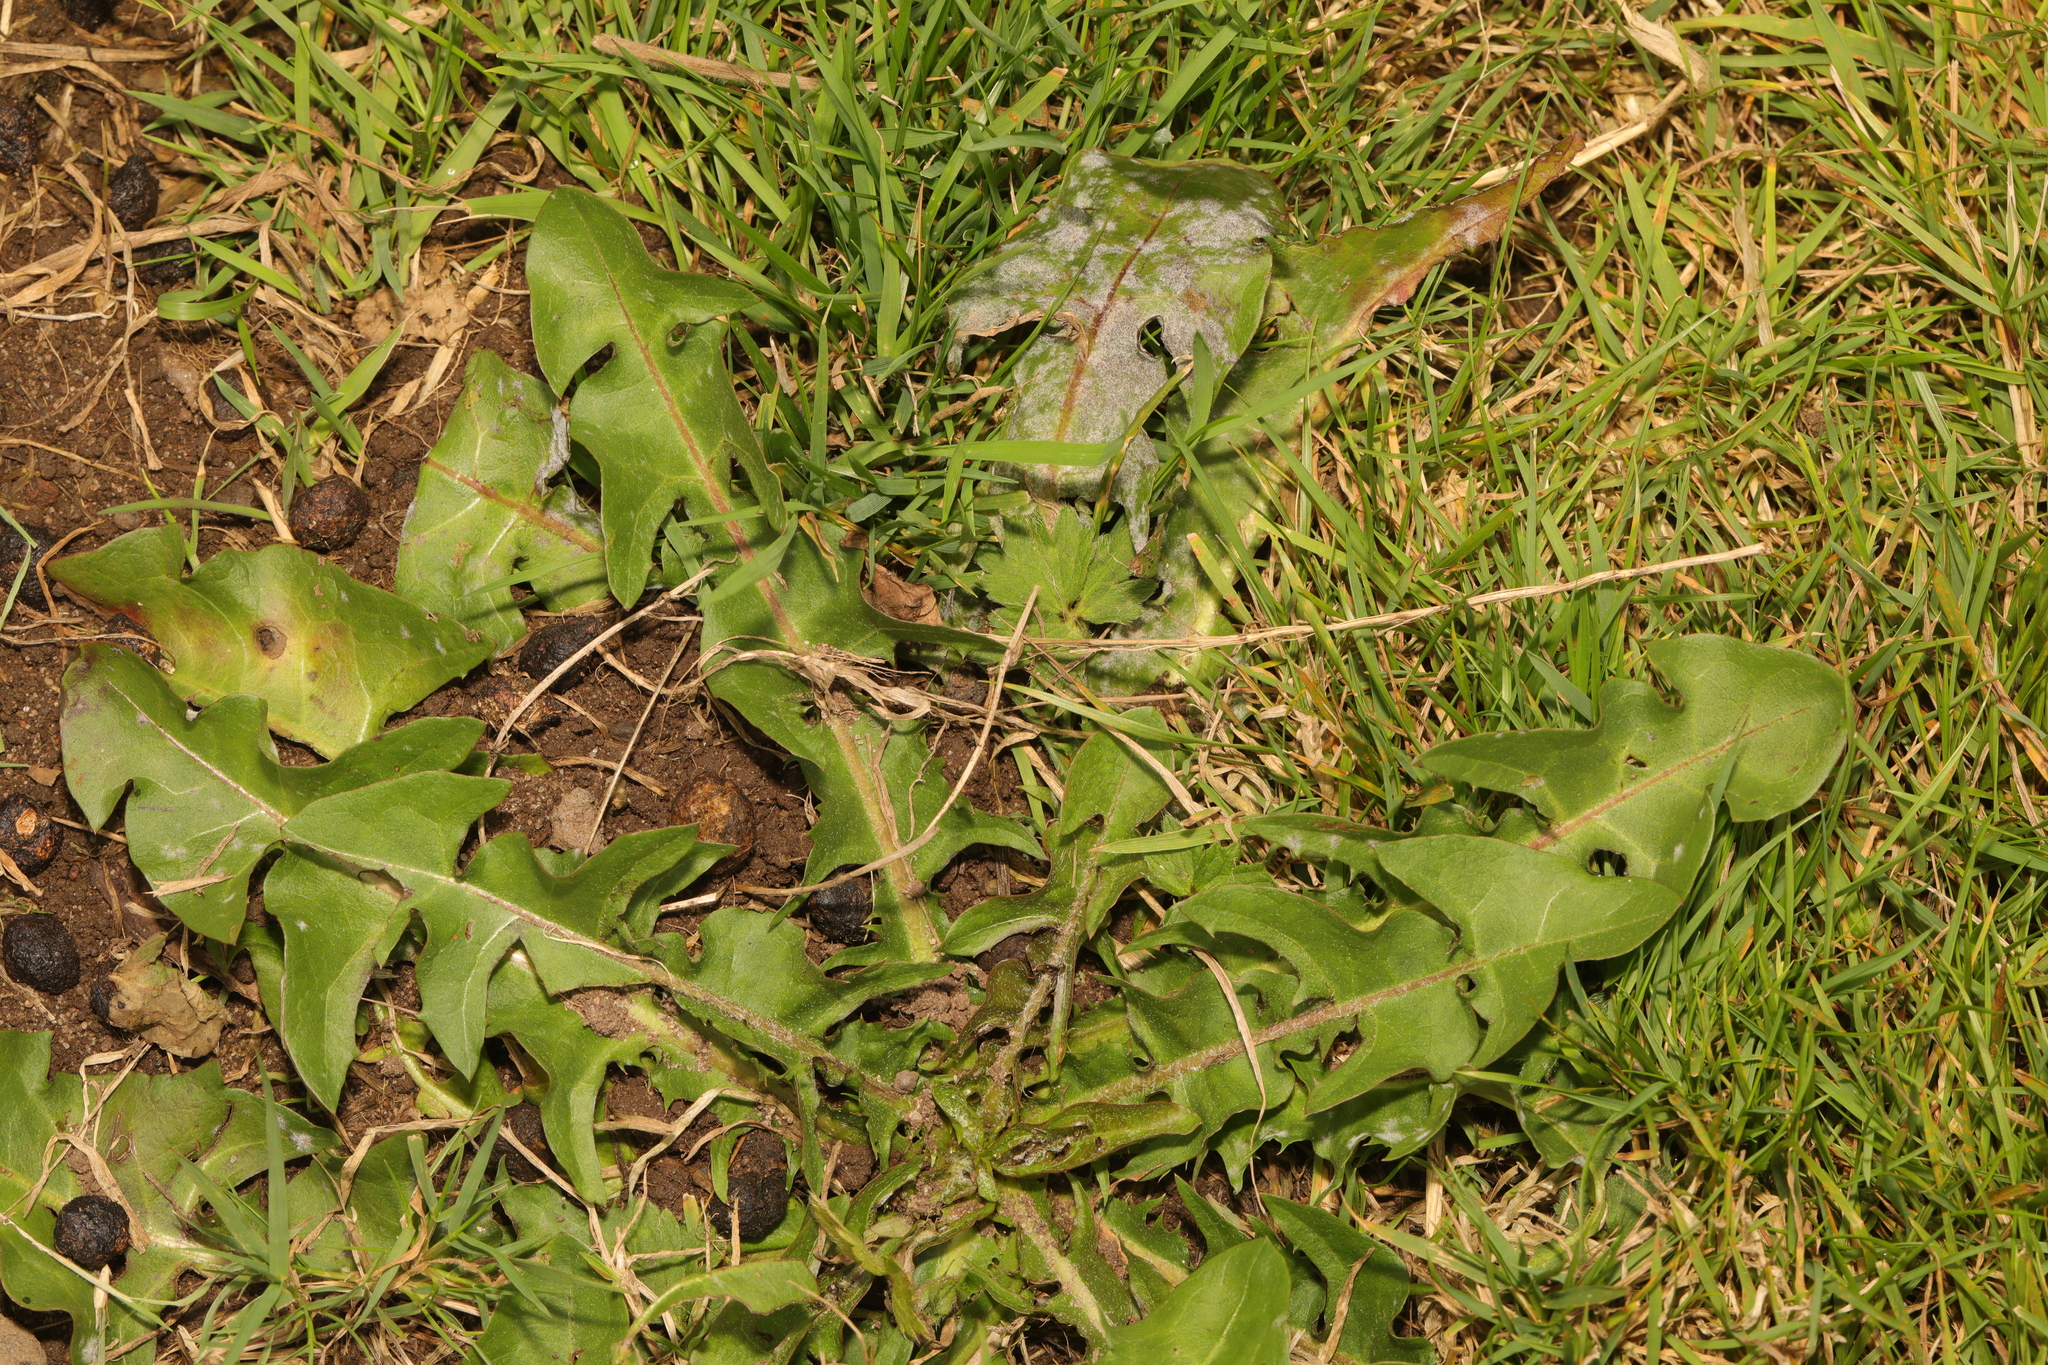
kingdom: Plantae
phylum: Tracheophyta
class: Magnoliopsida
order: Asterales
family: Asteraceae
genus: Taraxacum
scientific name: Taraxacum officinale
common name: Common dandelion
